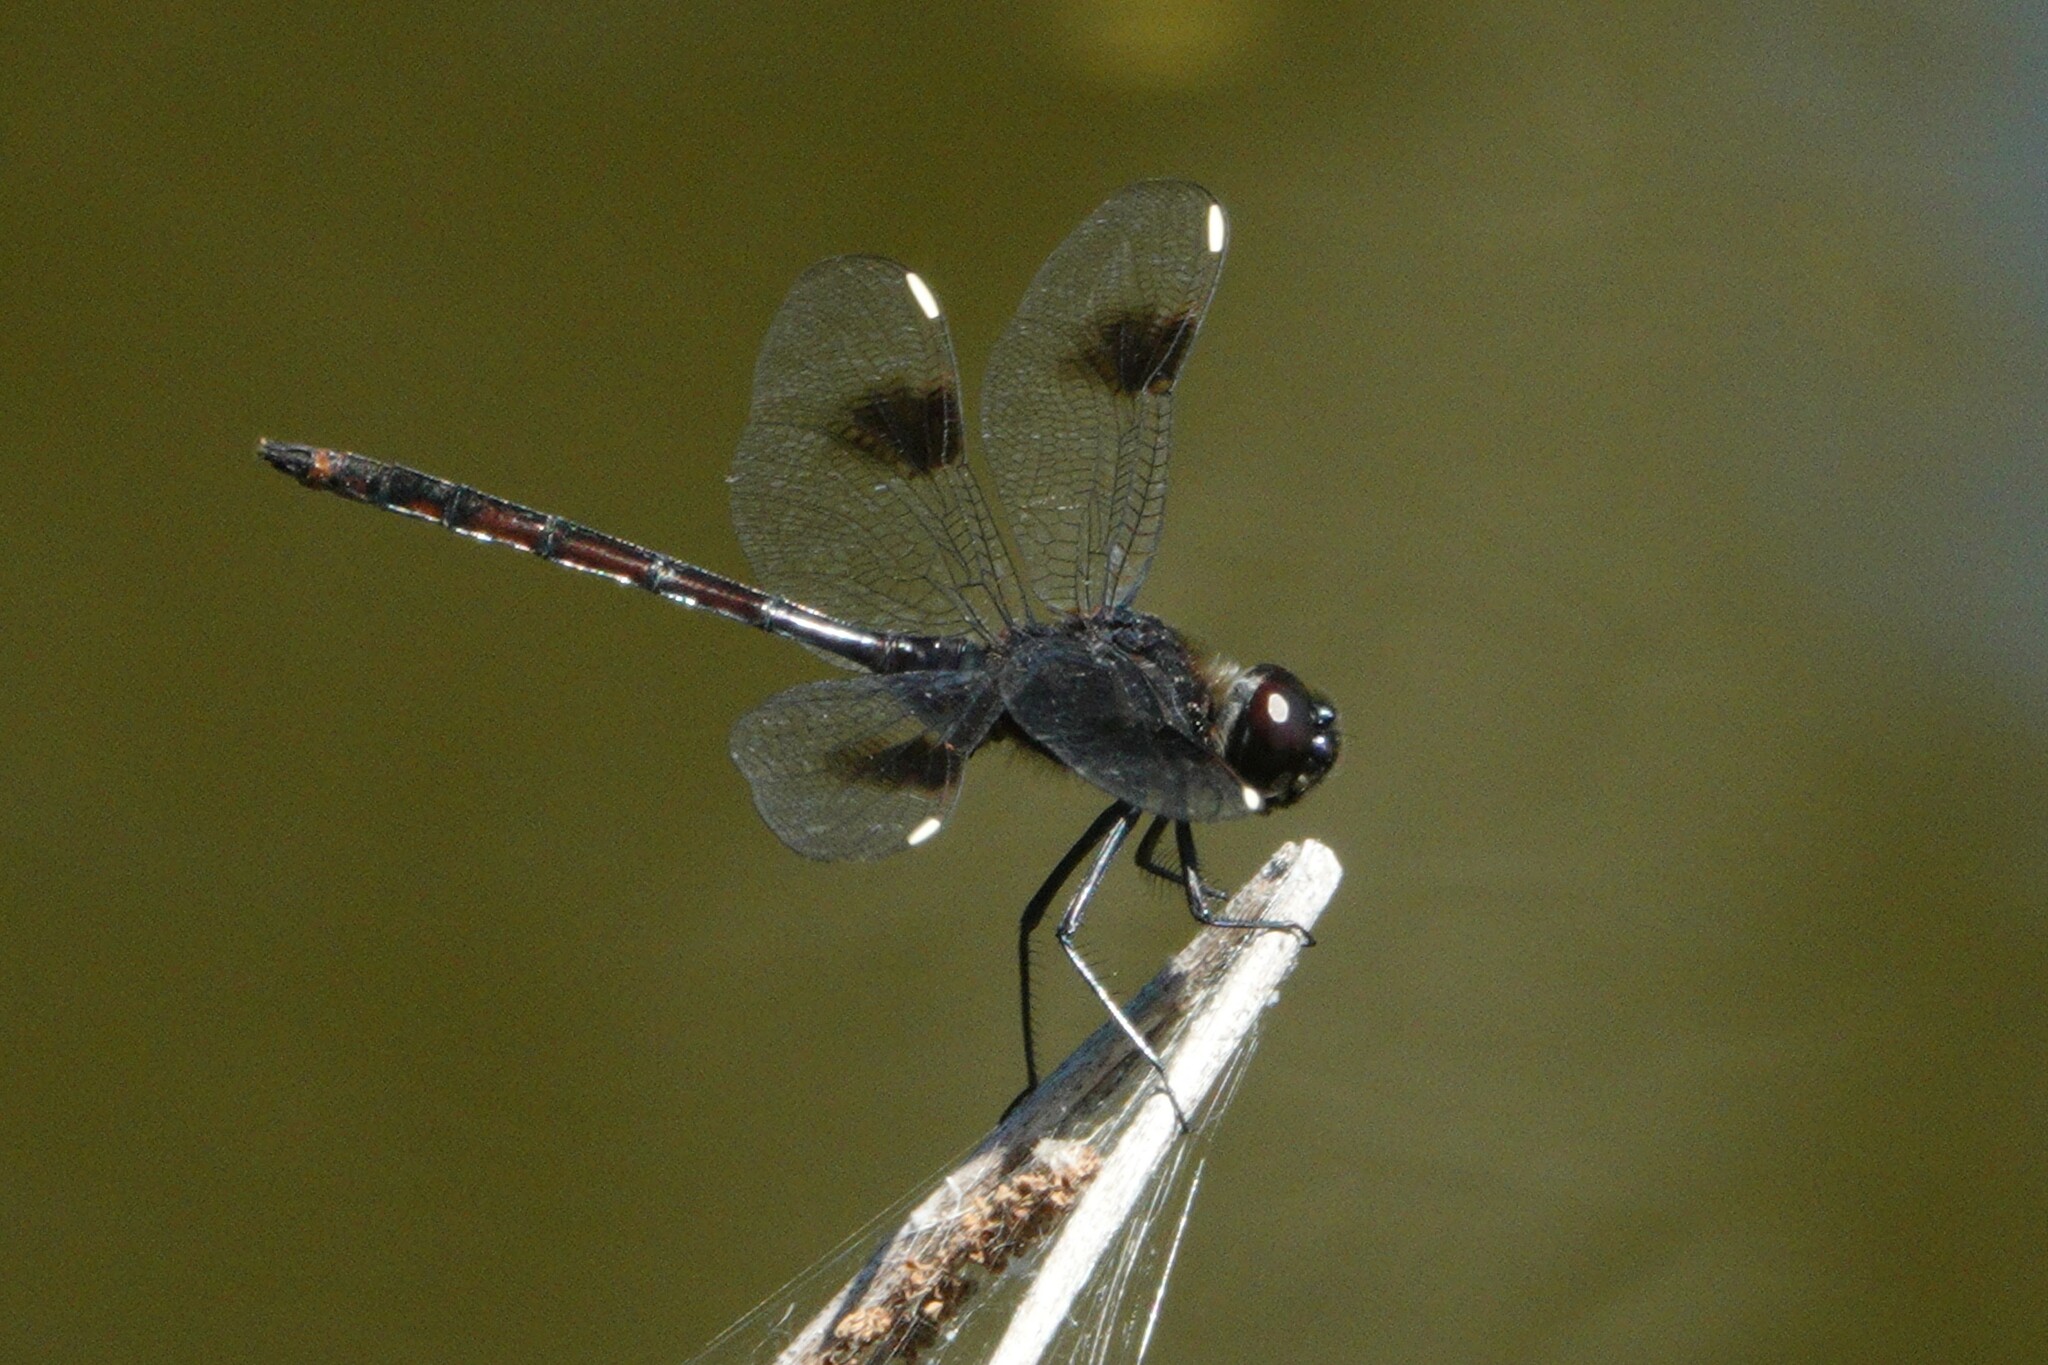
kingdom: Animalia
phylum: Arthropoda
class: Insecta
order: Odonata
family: Libellulidae
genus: Brachymesia
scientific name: Brachymesia gravida
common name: Four-spotted pennant
